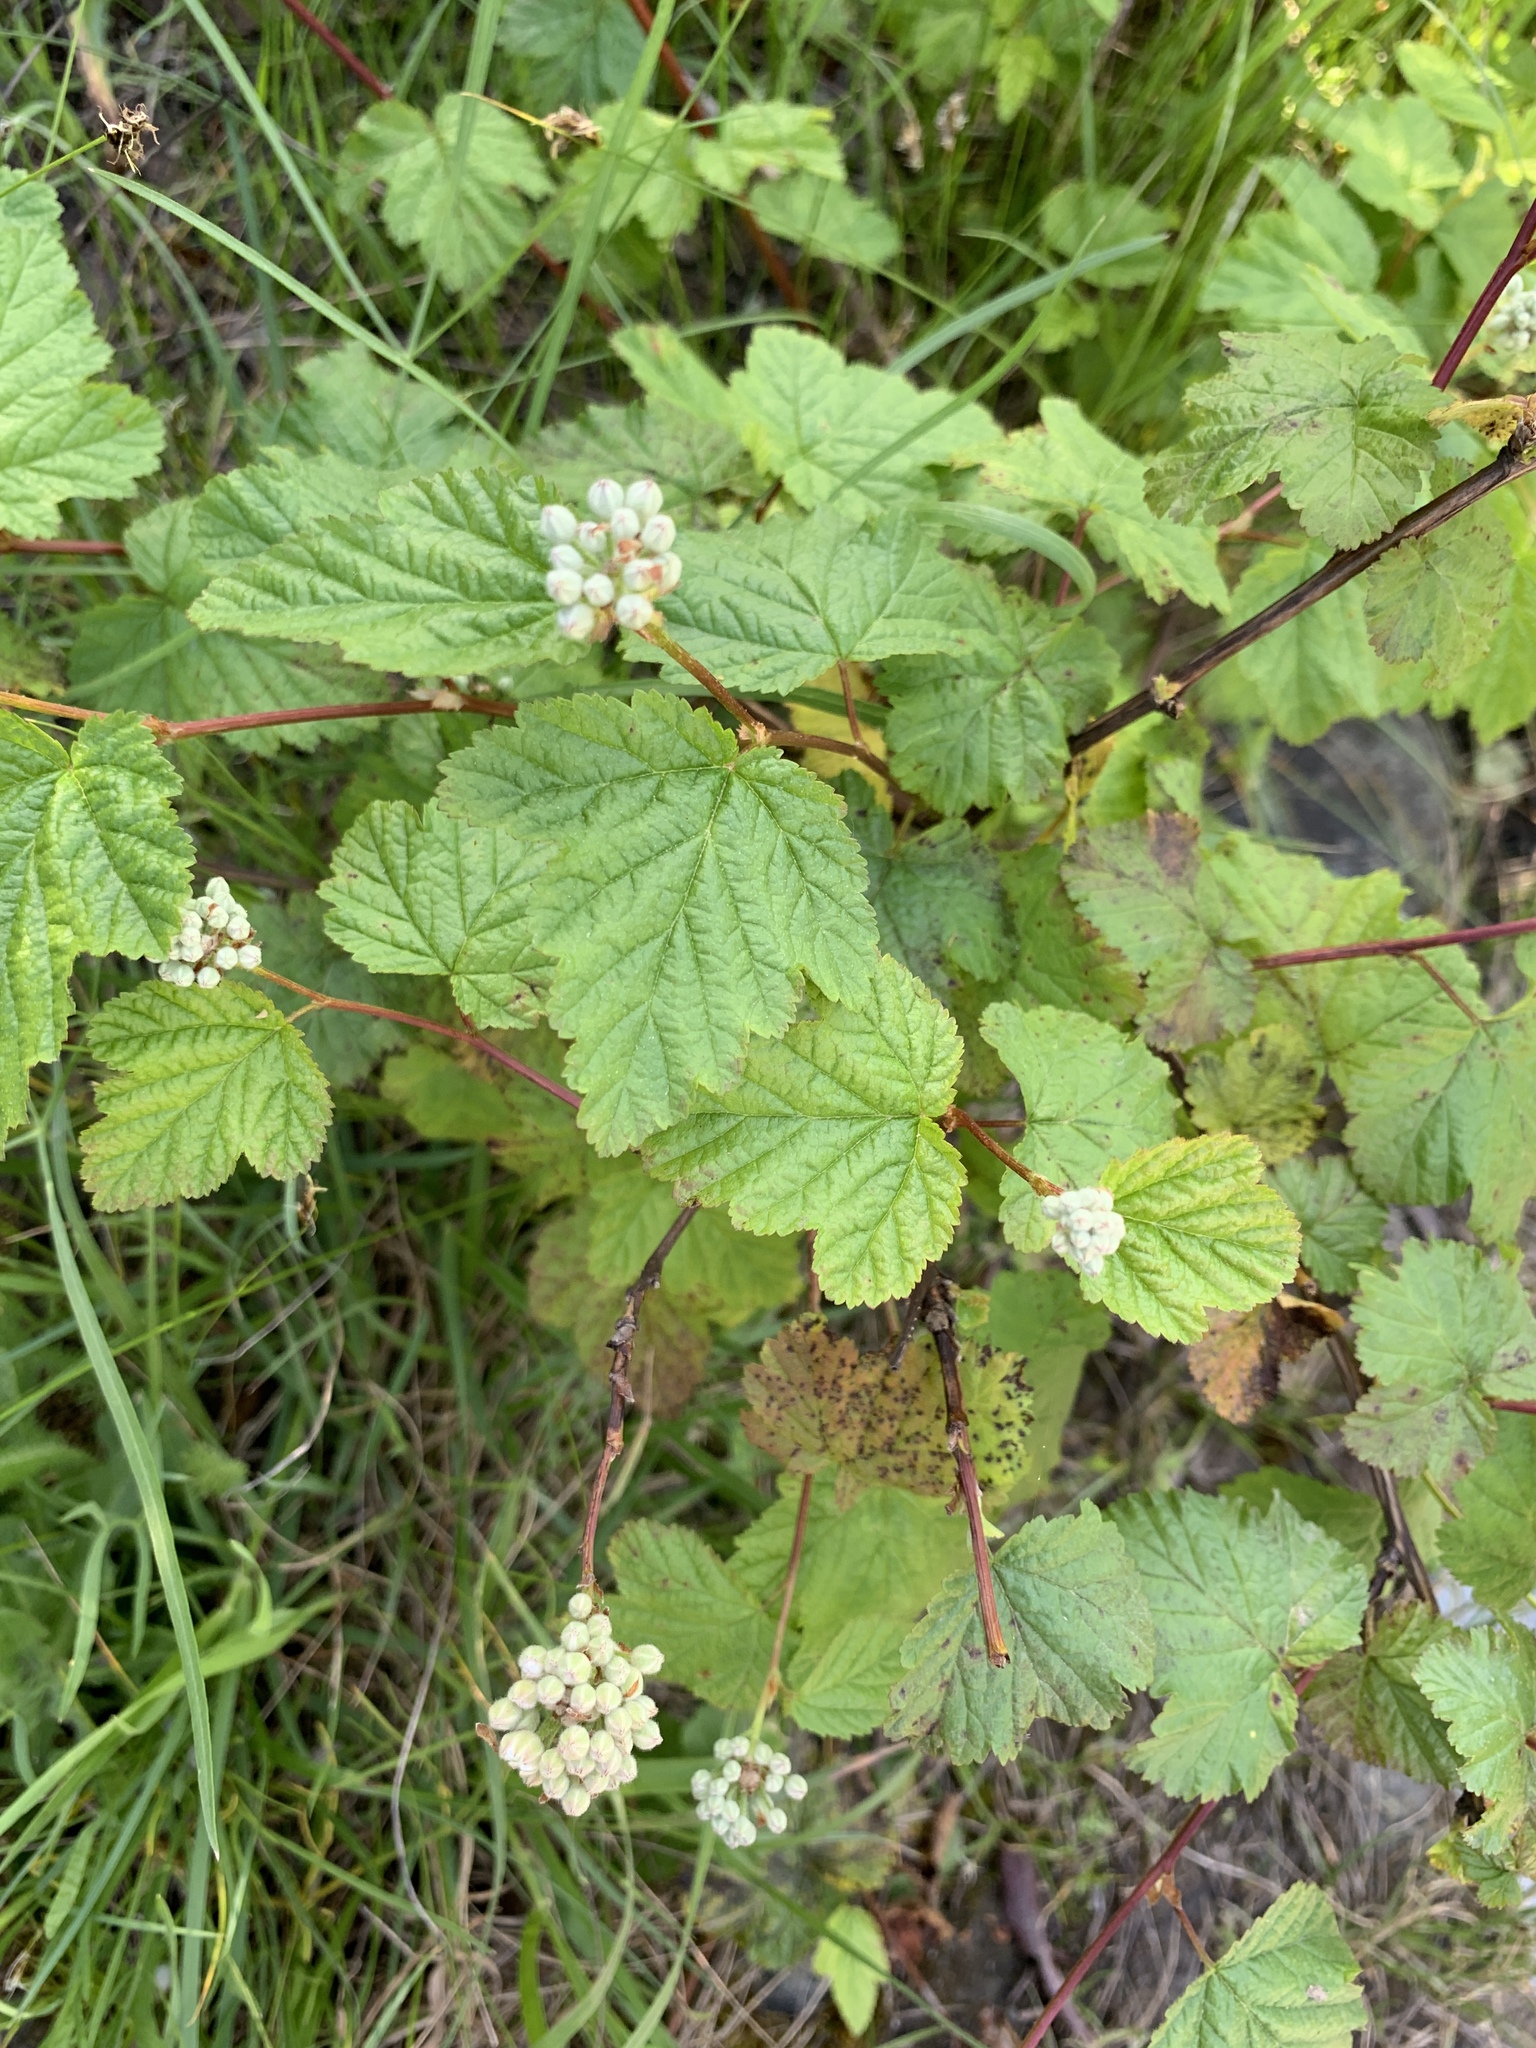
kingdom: Plantae
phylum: Tracheophyta
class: Magnoliopsida
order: Rosales
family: Rosaceae
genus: Physocarpus
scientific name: Physocarpus capitatus
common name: Pacific ninebark
